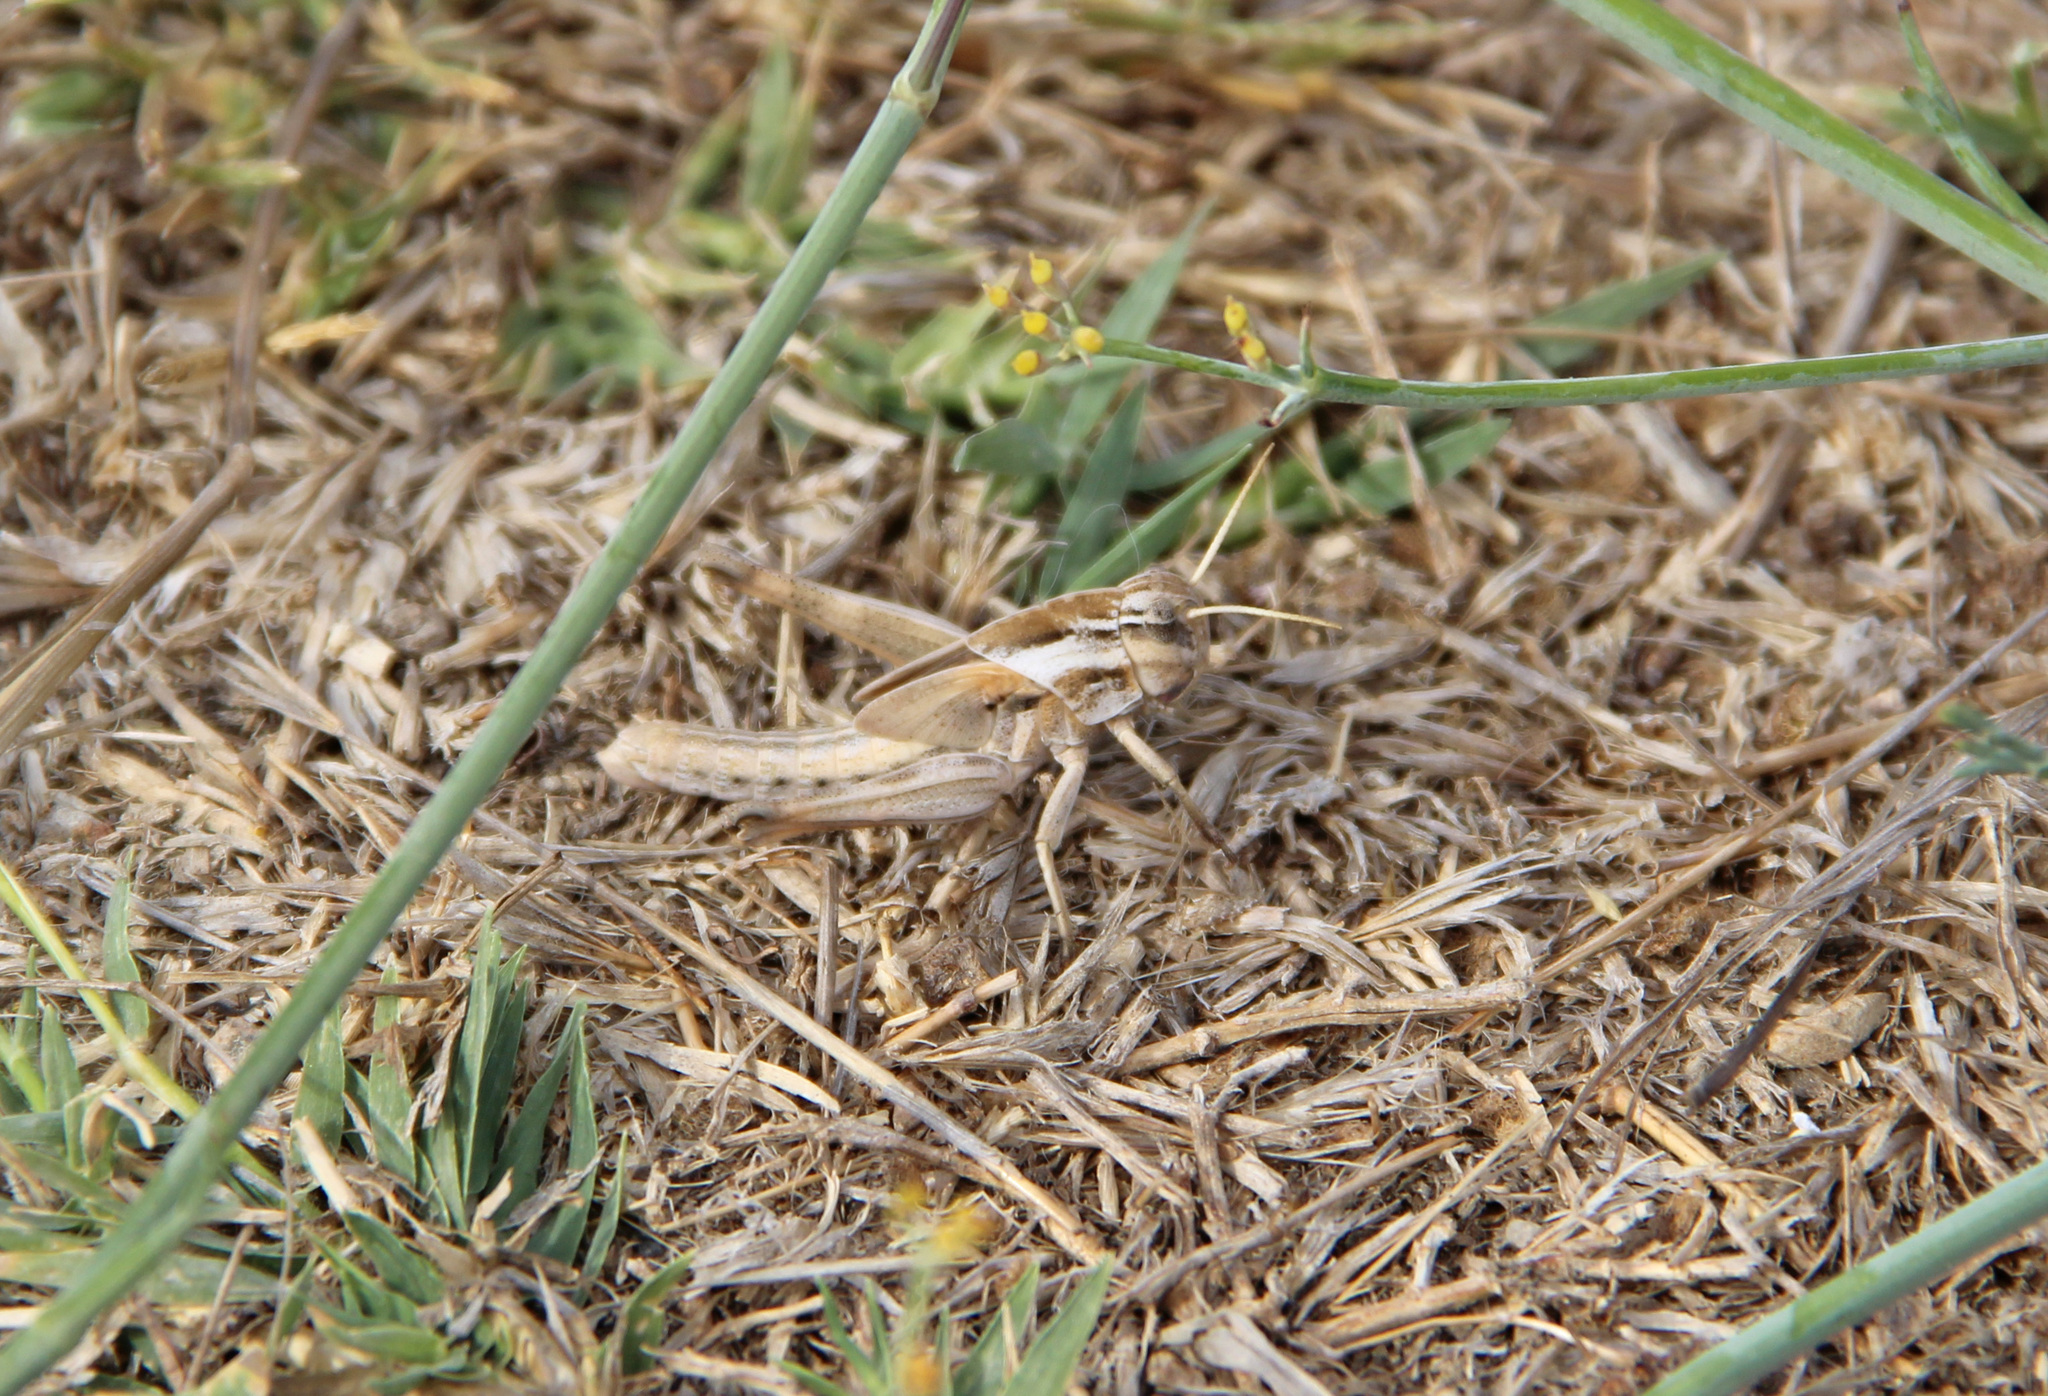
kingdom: Animalia
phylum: Arthropoda
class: Insecta
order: Orthoptera
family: Acrididae
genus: Locusta
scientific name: Locusta migratoria
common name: Migratory locust
